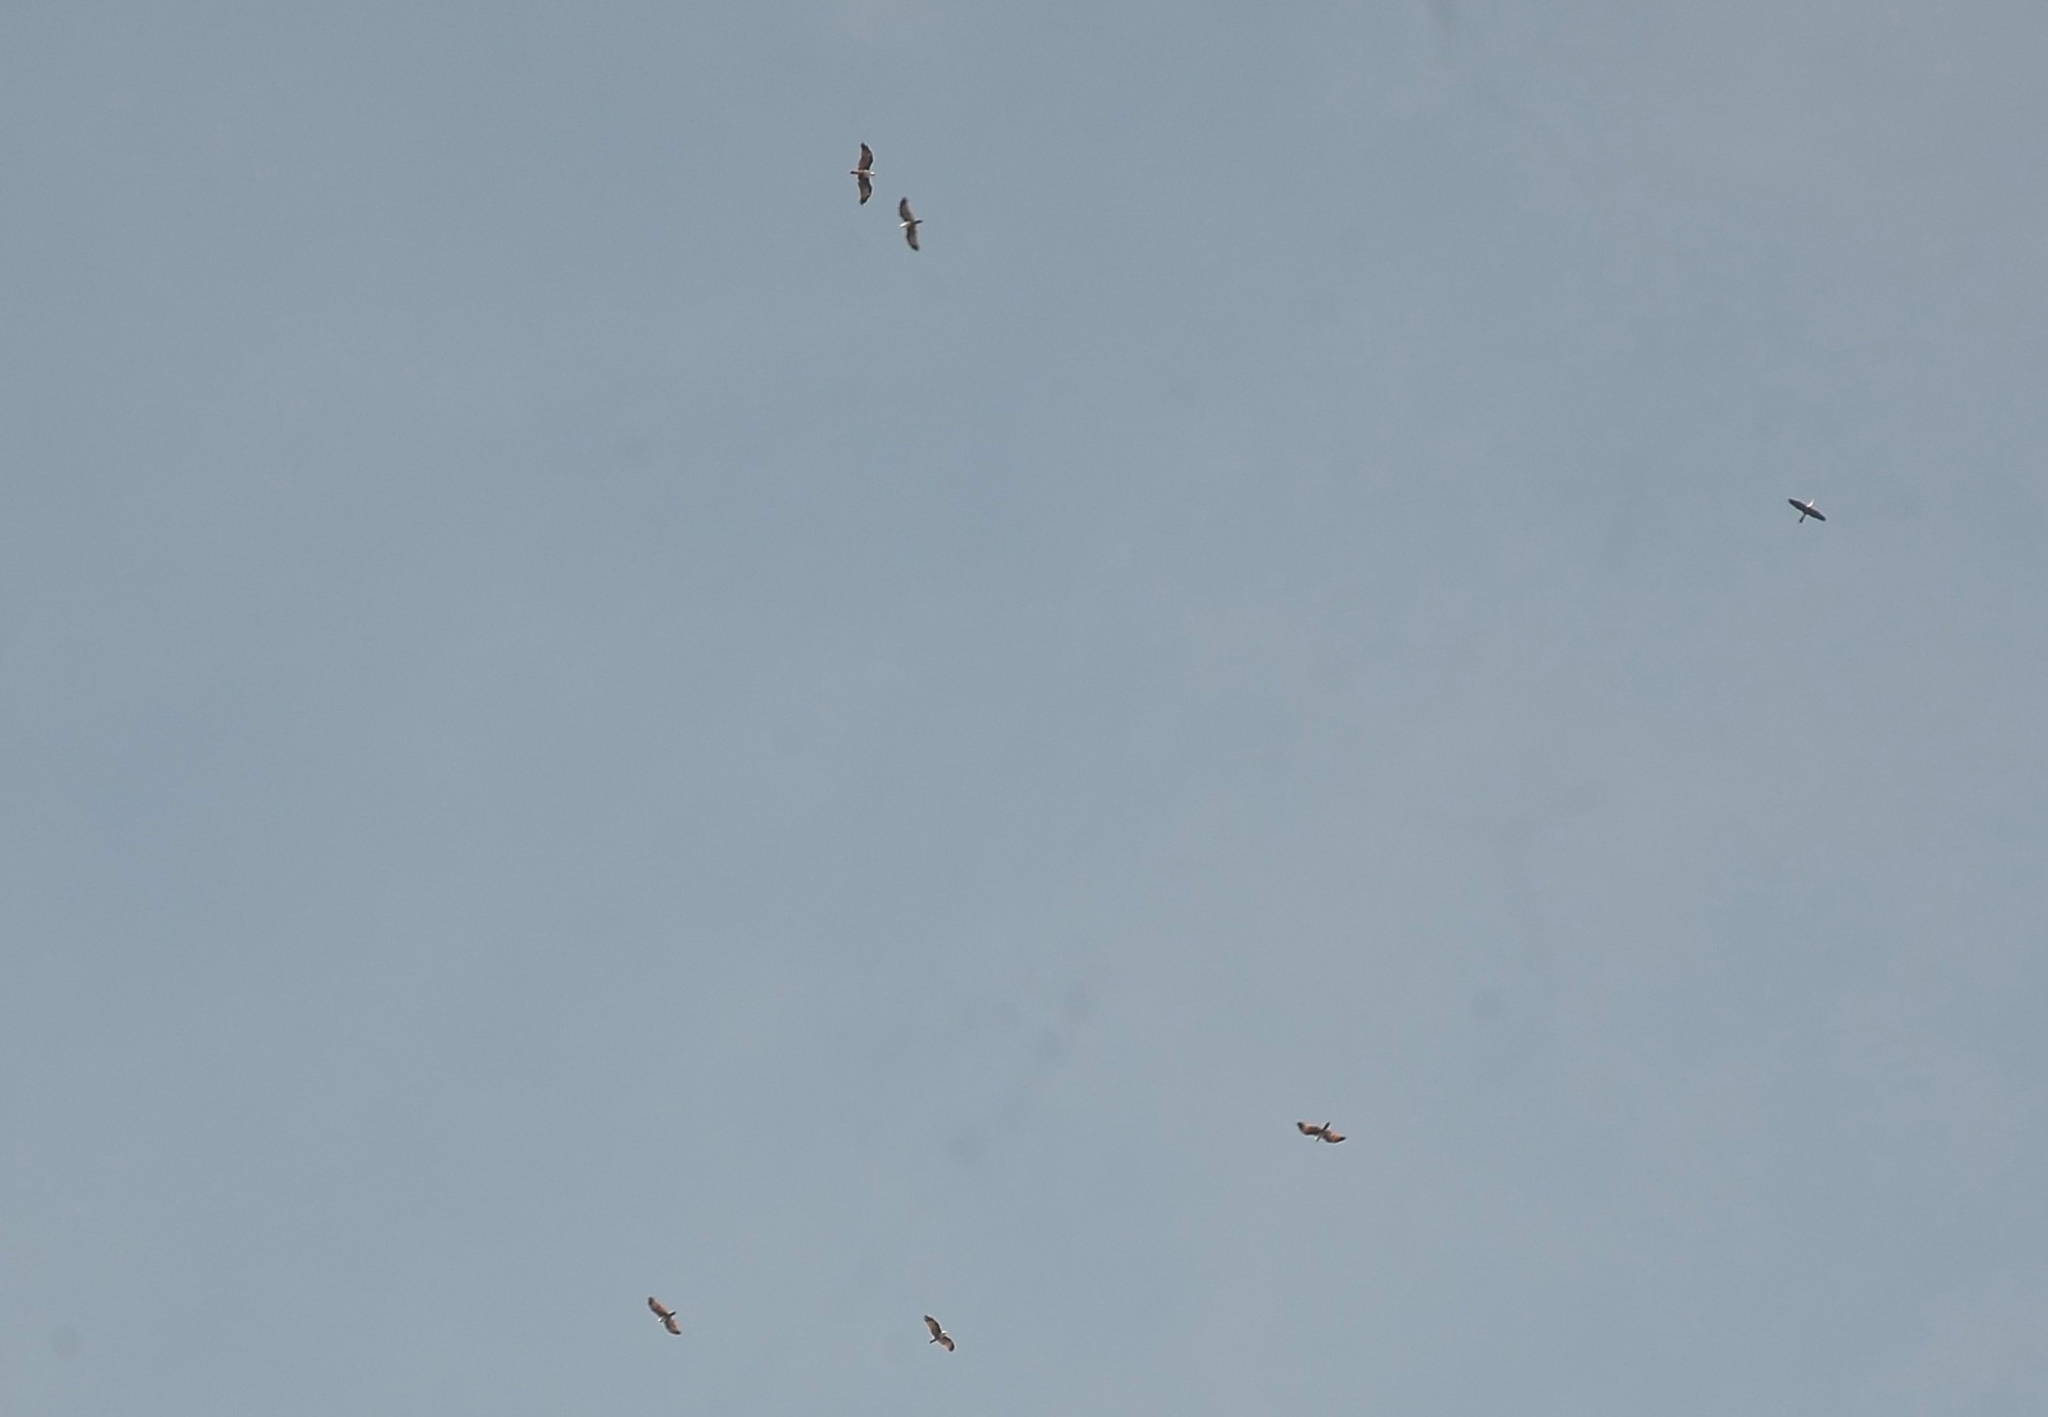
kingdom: Animalia
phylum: Chordata
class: Aves
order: Accipitriformes
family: Accipitridae
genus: Haliastur
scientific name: Haliastur indus
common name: Brahminy kite
